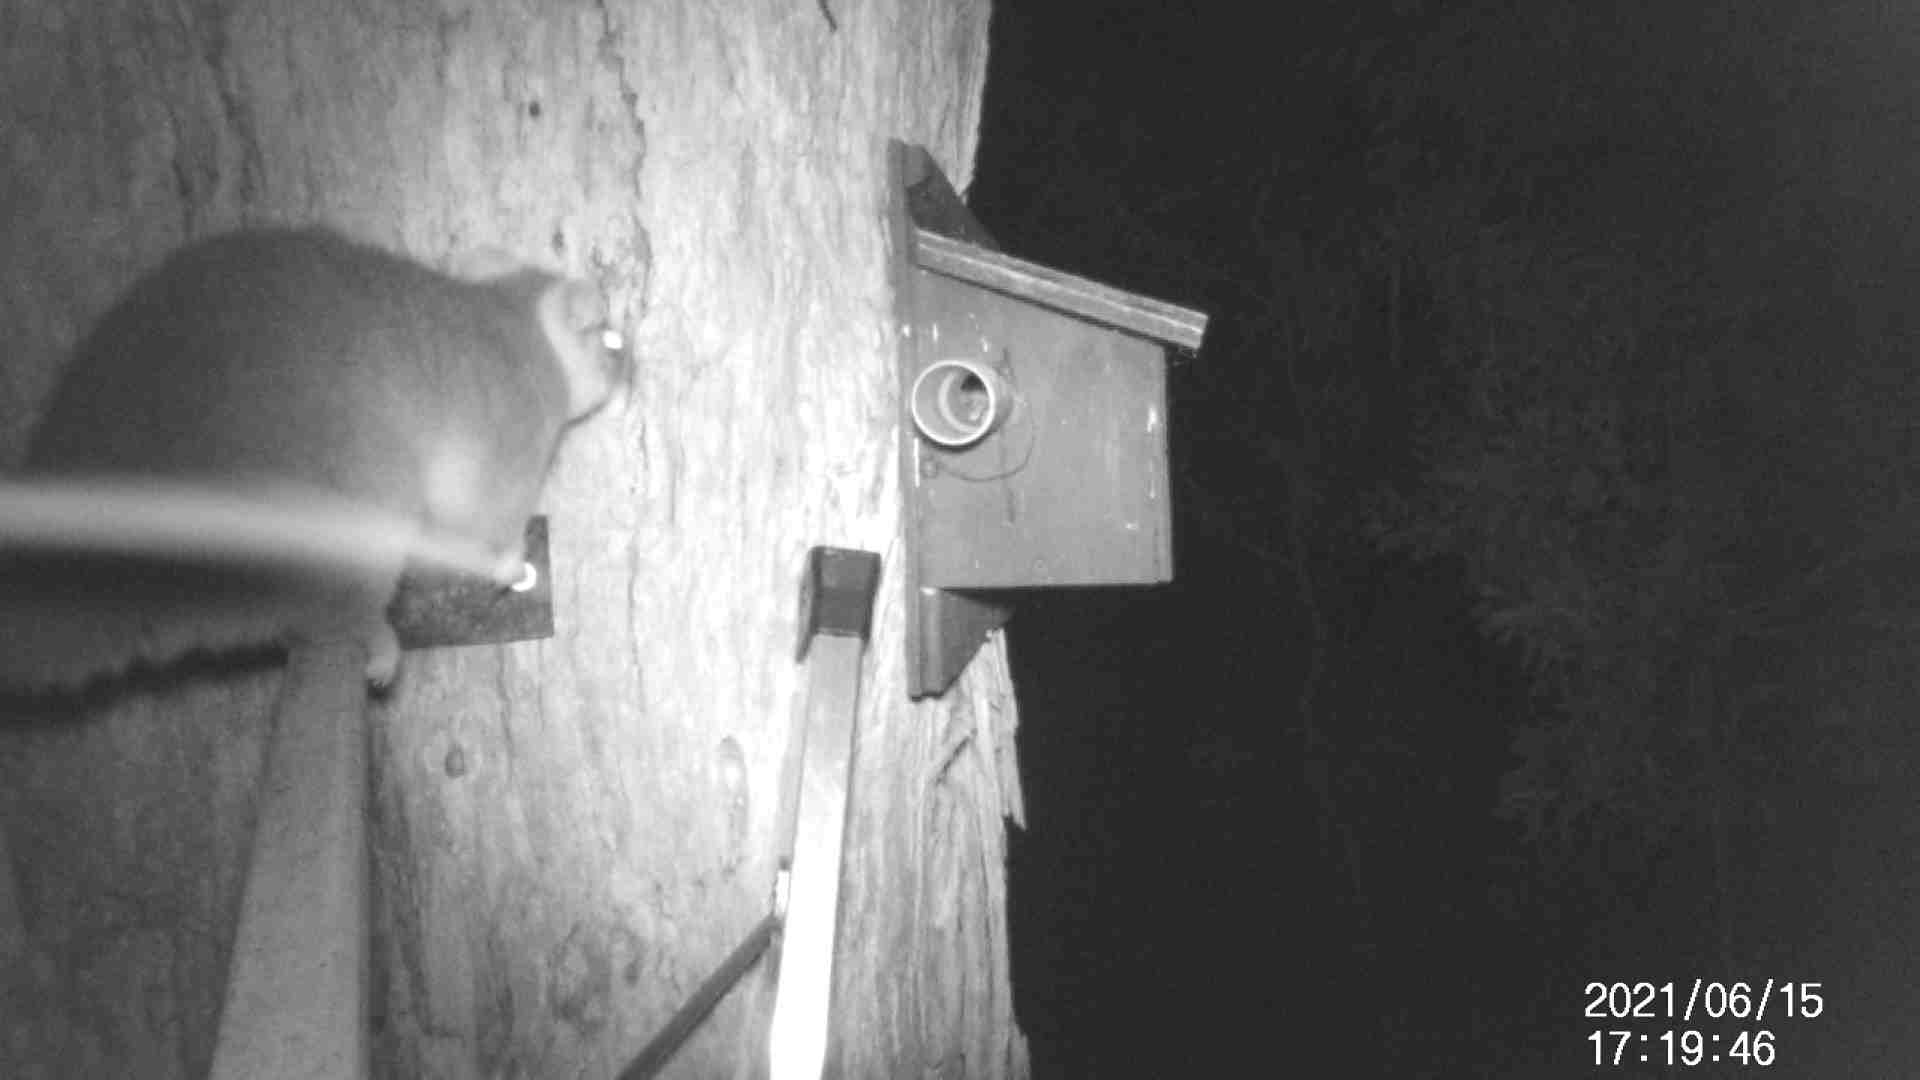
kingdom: Animalia
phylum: Chordata
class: Mammalia
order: Diprotodontia
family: Pseudocheiridae
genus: Pseudocheirus
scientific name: Pseudocheirus peregrinus
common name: Common ringtail possum
